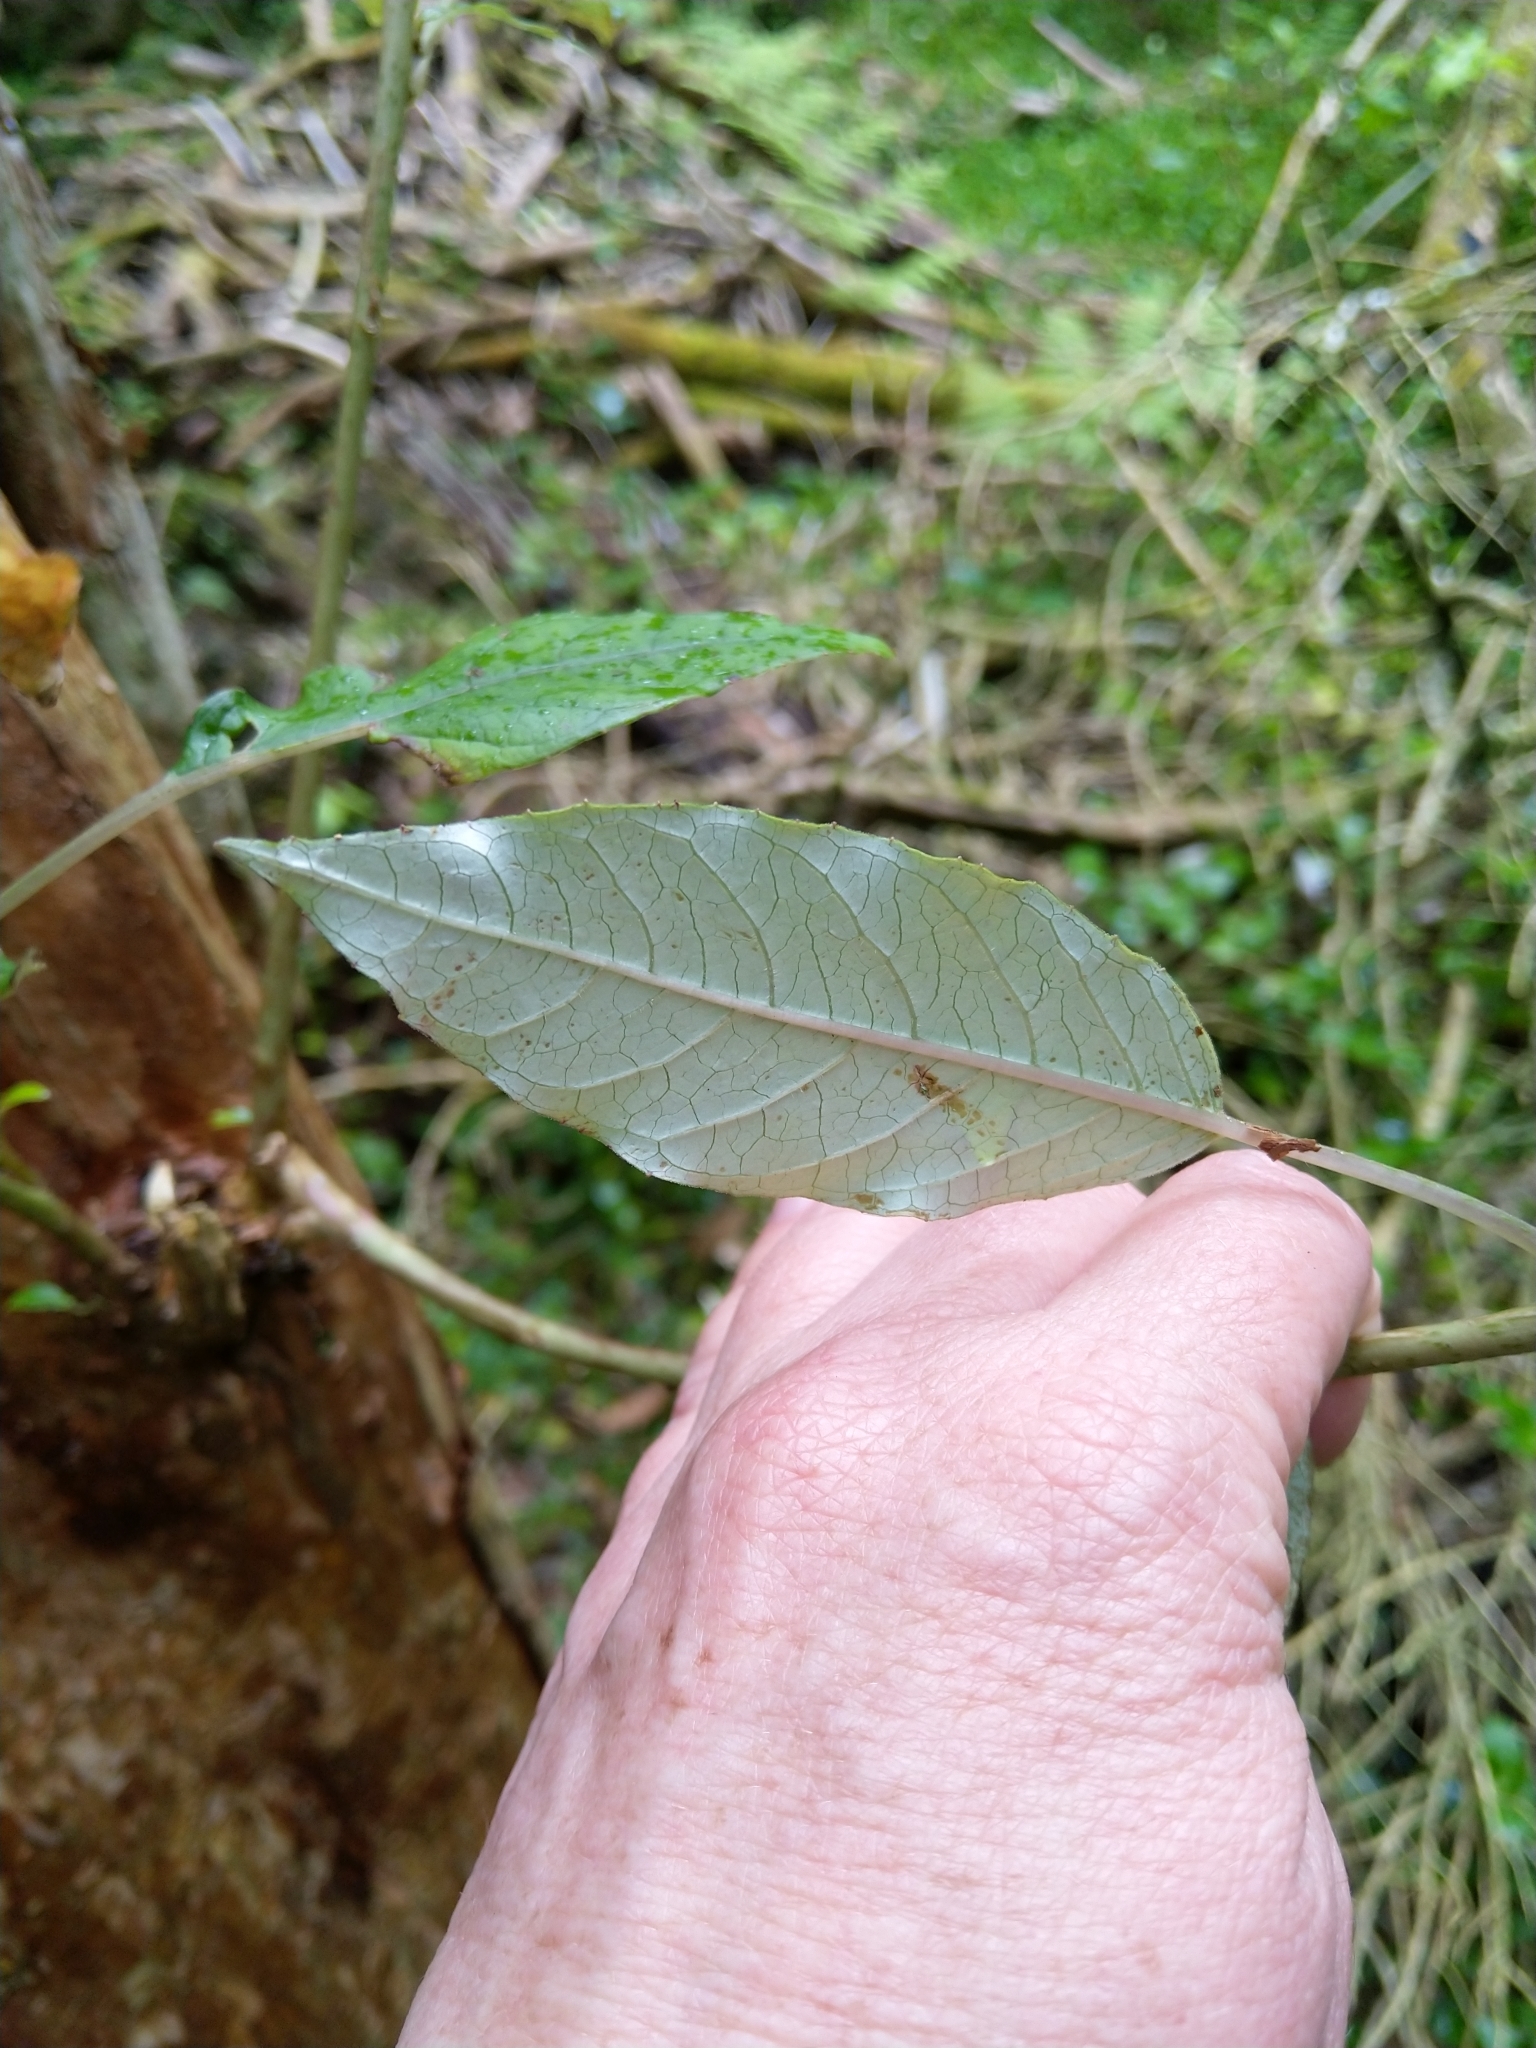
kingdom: Plantae
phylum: Tracheophyta
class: Magnoliopsida
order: Myrtales
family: Onagraceae
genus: Fuchsia
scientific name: Fuchsia excorticata
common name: Tree fuchsia
